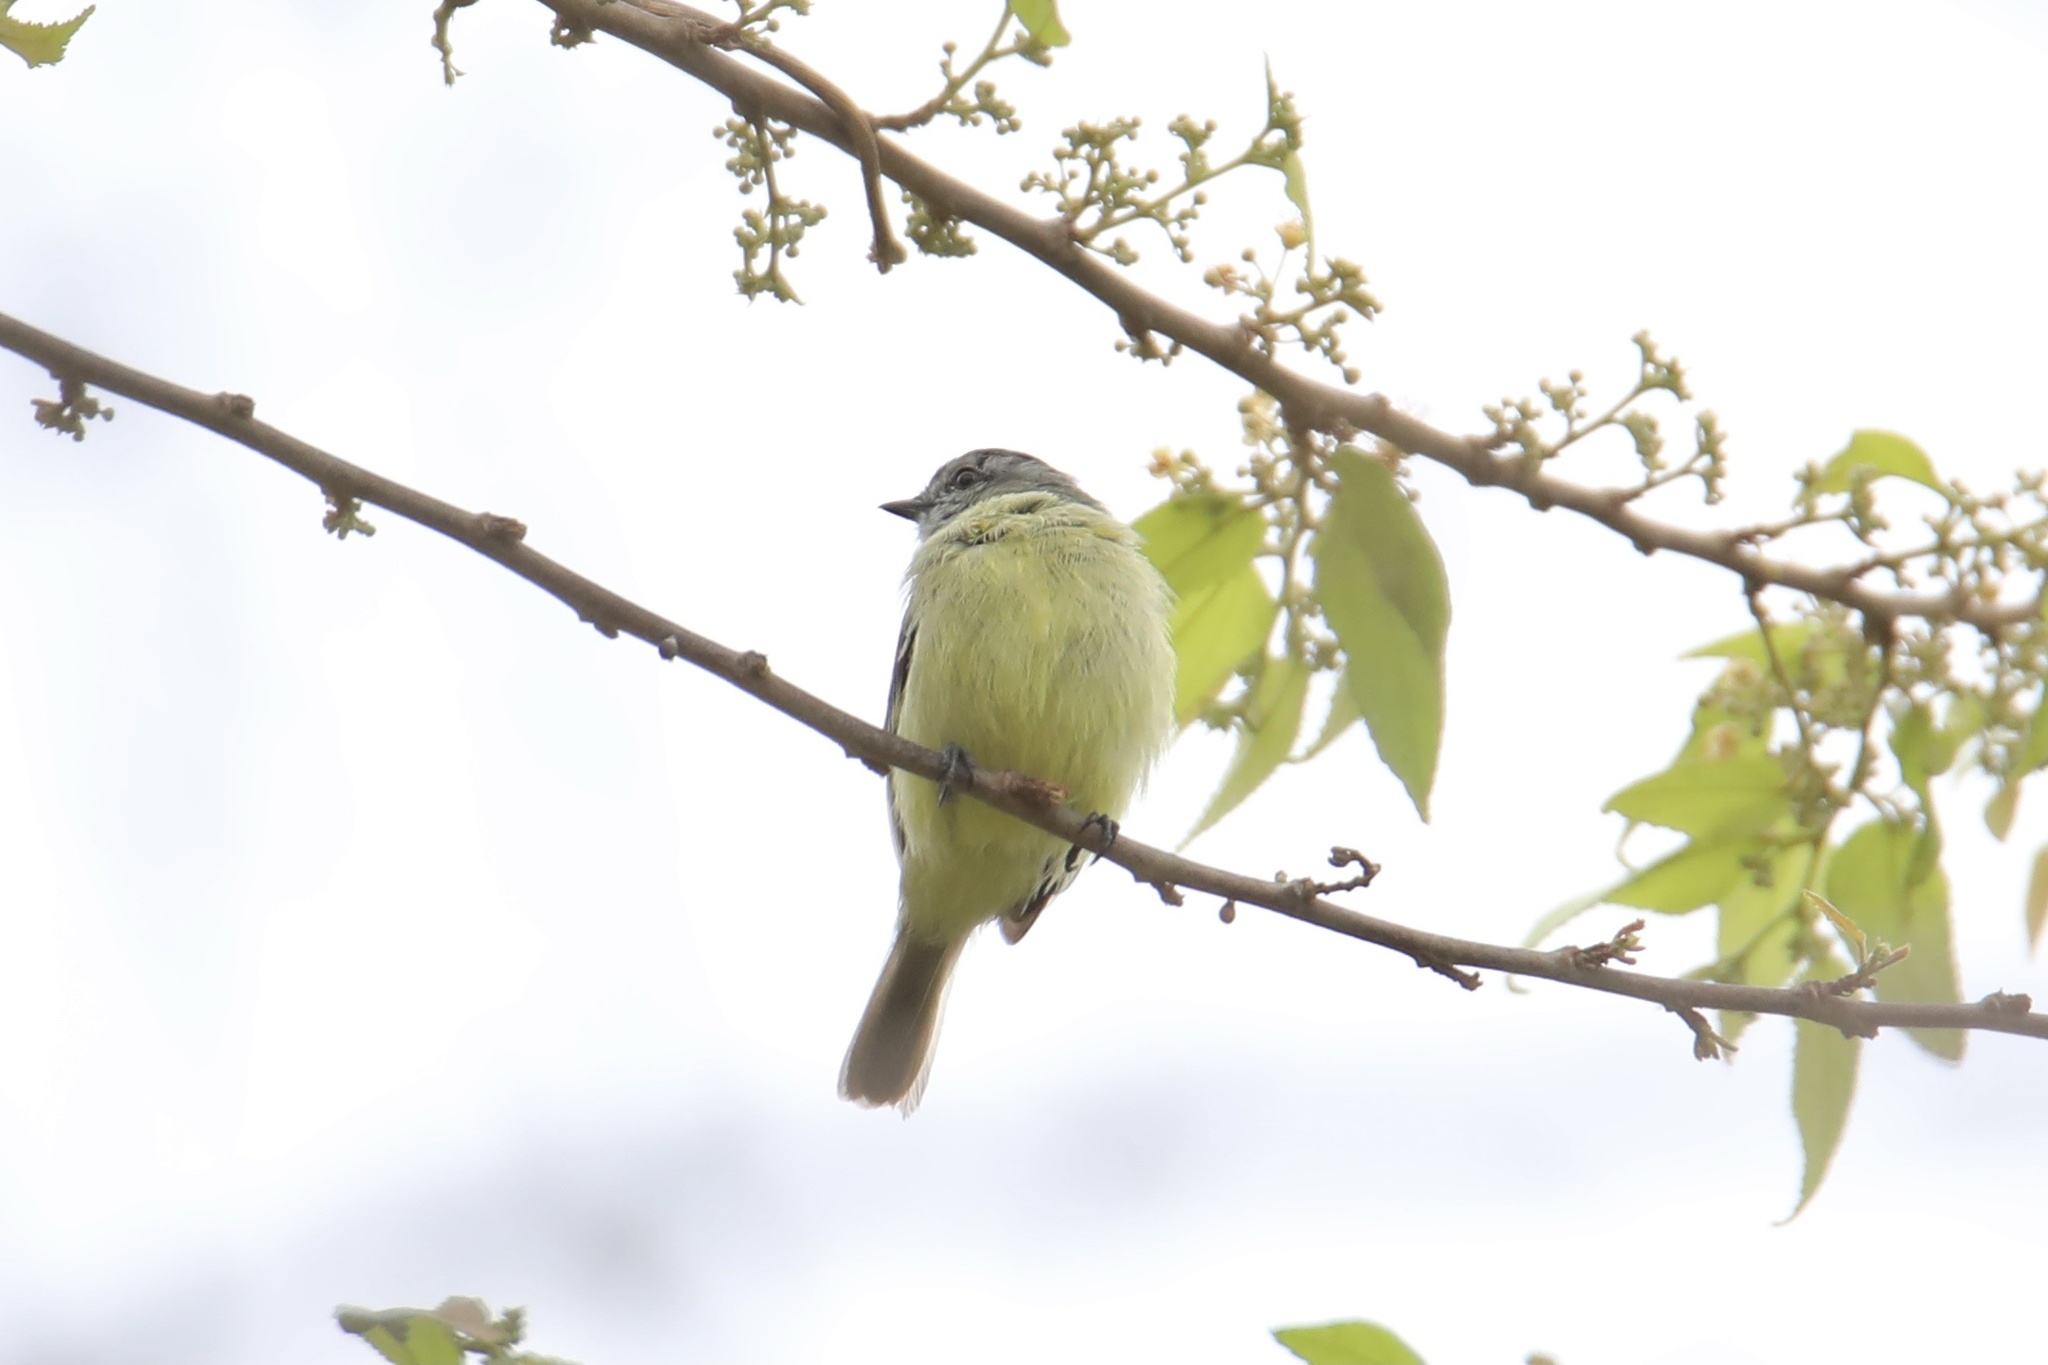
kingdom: Animalia
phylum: Chordata
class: Aves
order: Passeriformes
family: Tyrannidae
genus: Tyrannulus
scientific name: Tyrannulus elatus
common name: Yellow-crowned tyrannulet
